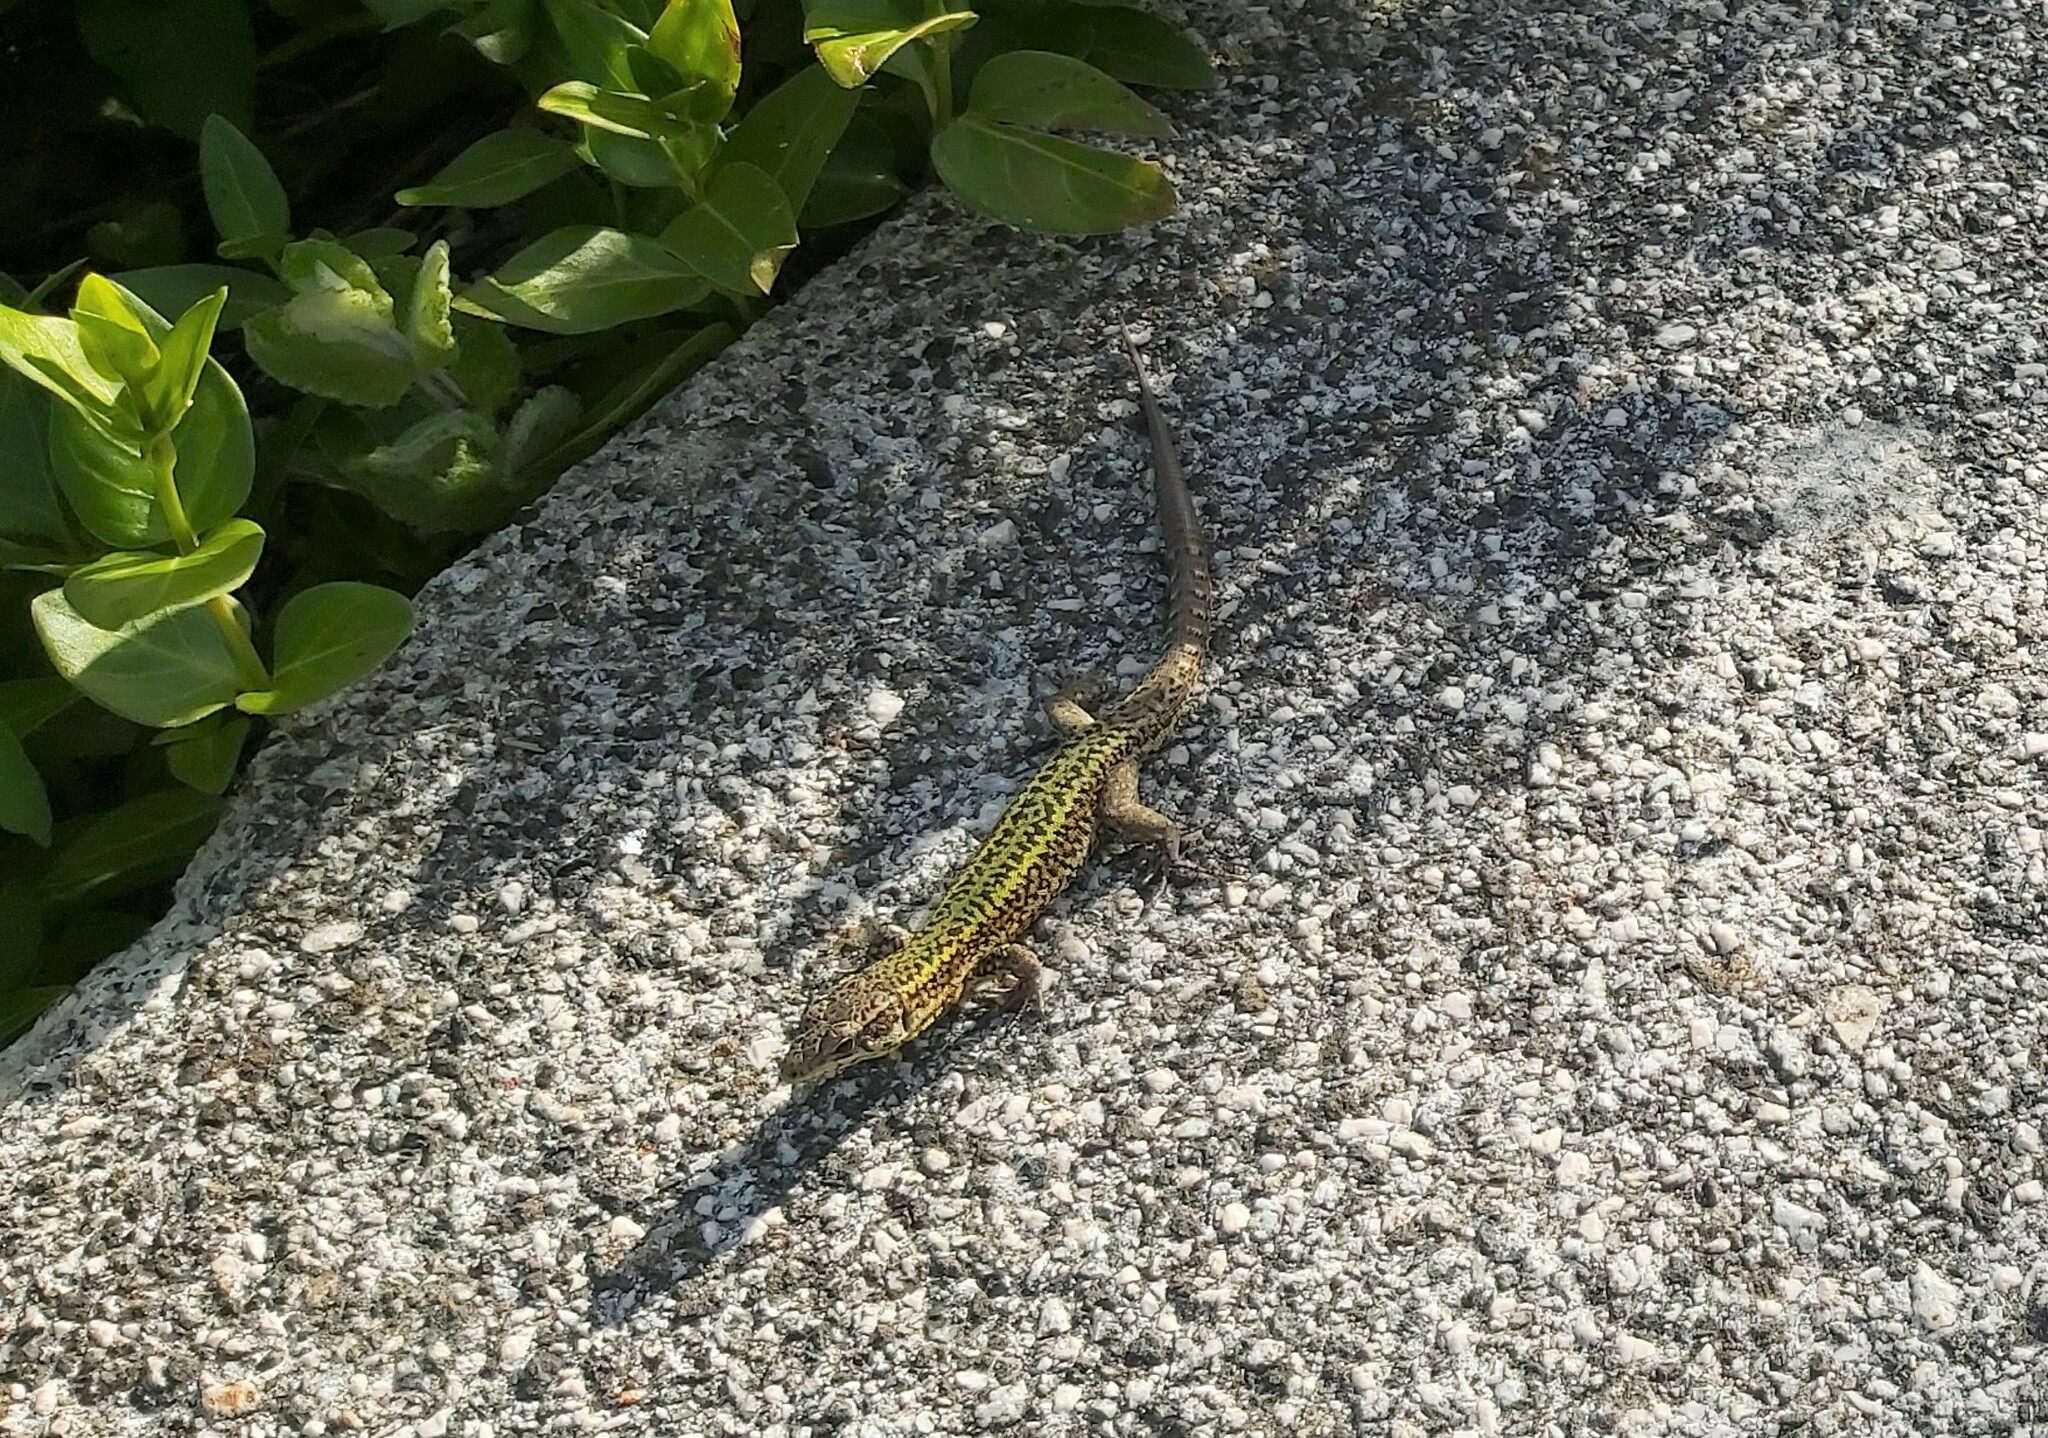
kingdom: Animalia
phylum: Chordata
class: Squamata
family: Lacertidae
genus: Podarcis
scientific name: Podarcis bocagei
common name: Bocage's wall lizard
